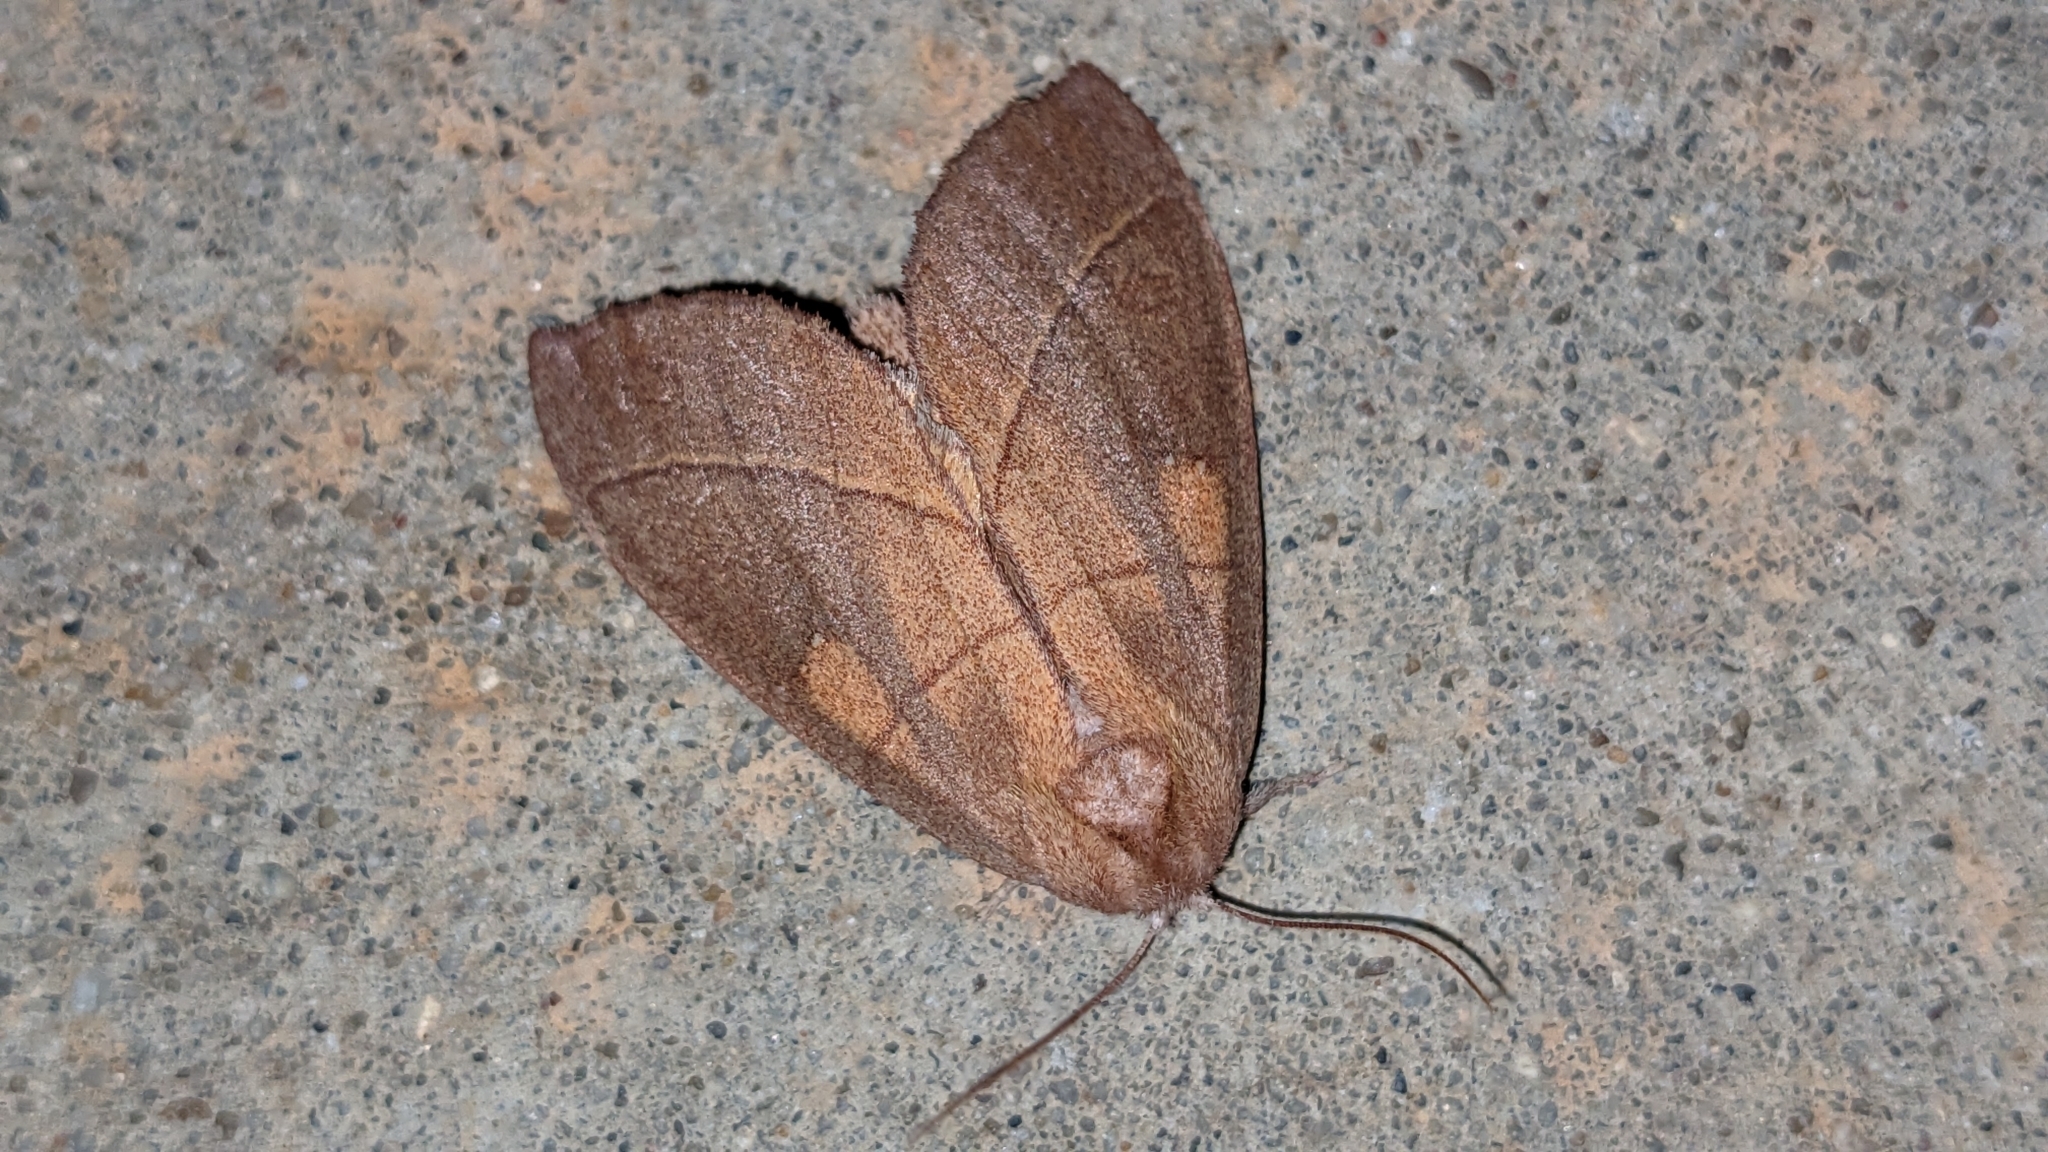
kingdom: Animalia
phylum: Arthropoda
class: Insecta
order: Lepidoptera
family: Notodontidae
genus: Nadata
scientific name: Nadata gibbosa
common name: White-dotted prominent
